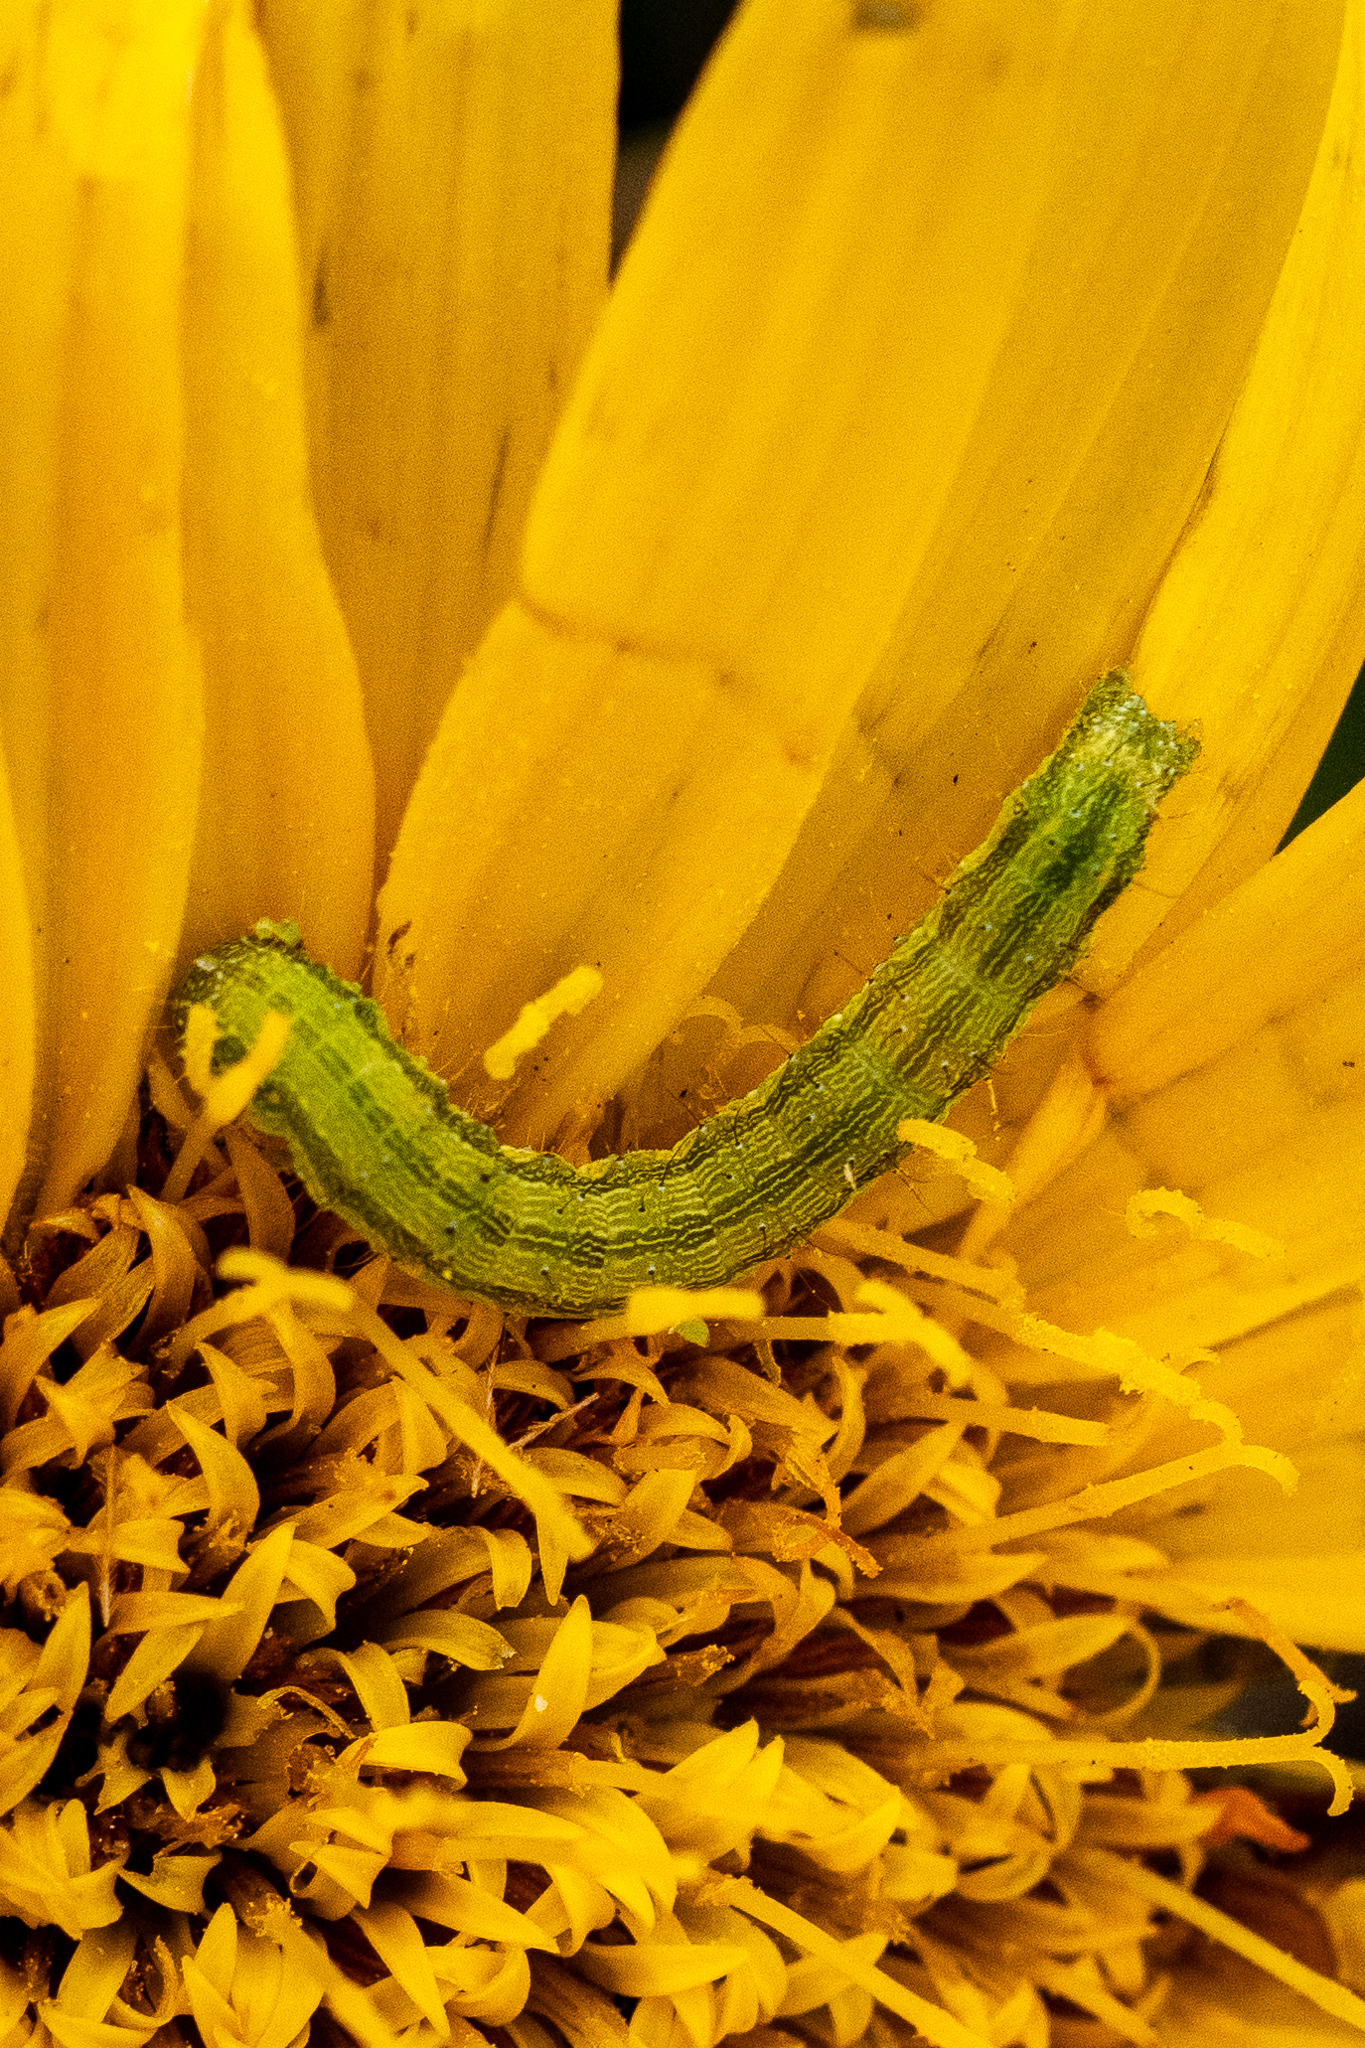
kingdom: Animalia
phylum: Arthropoda
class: Insecta
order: Lepidoptera
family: Noctuidae
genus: Helicoverpa
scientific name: Helicoverpa armigera
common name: Cotton bollworm
